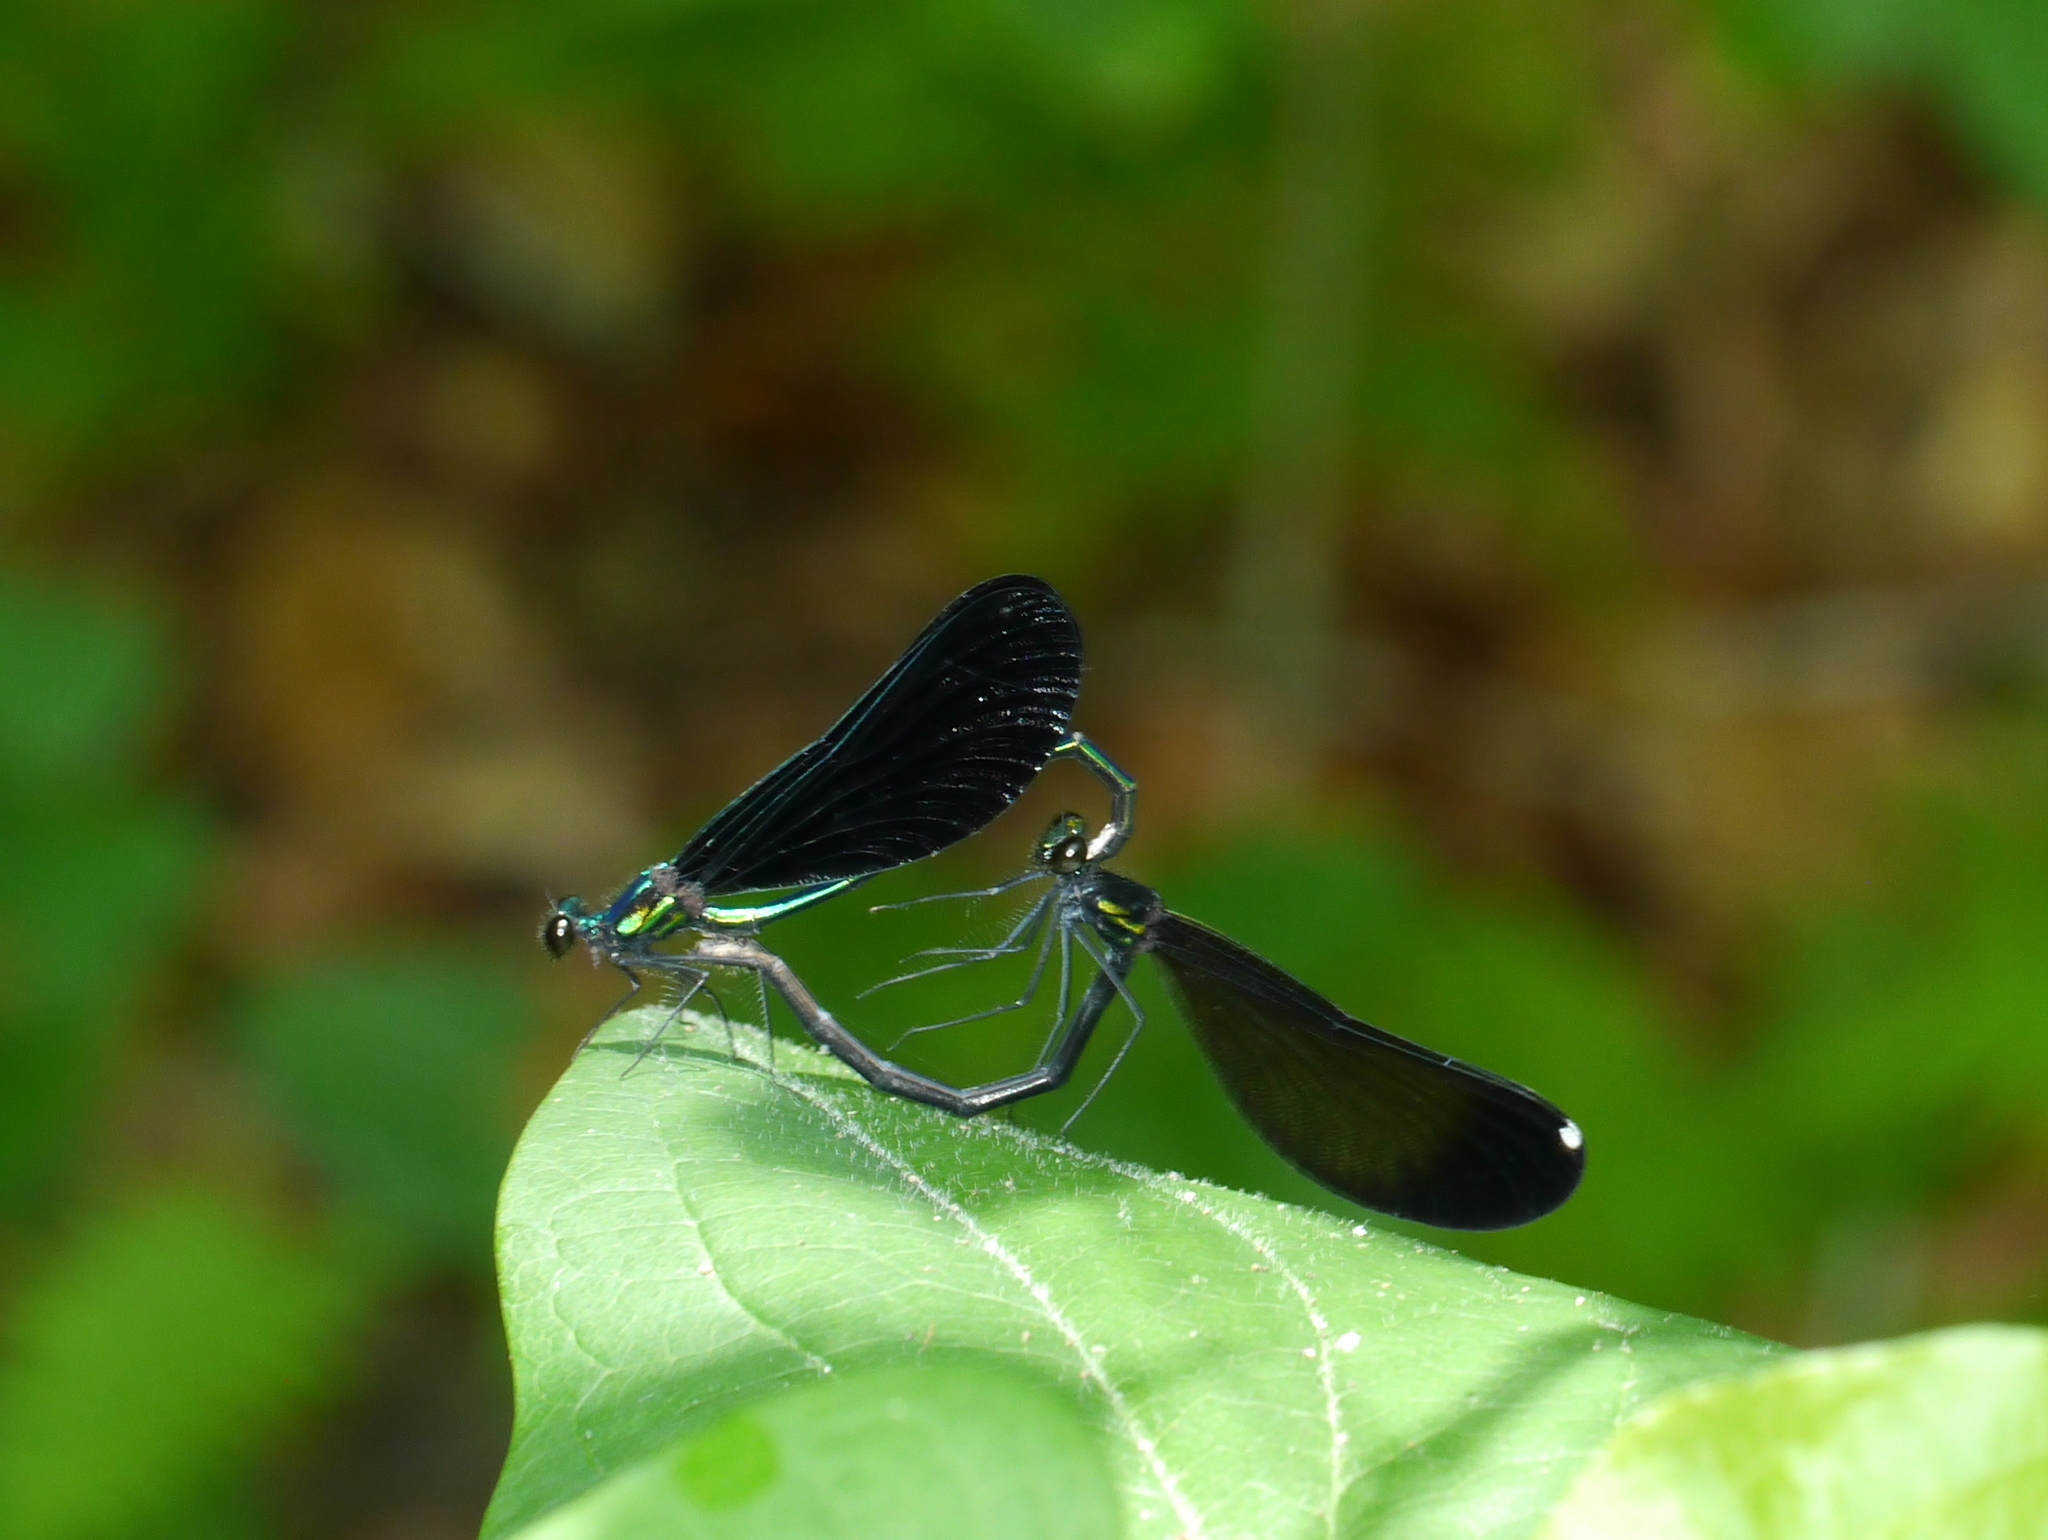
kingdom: Animalia
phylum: Arthropoda
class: Insecta
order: Odonata
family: Calopterygidae
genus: Calopteryx
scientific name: Calopteryx maculata
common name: Ebony jewelwing
